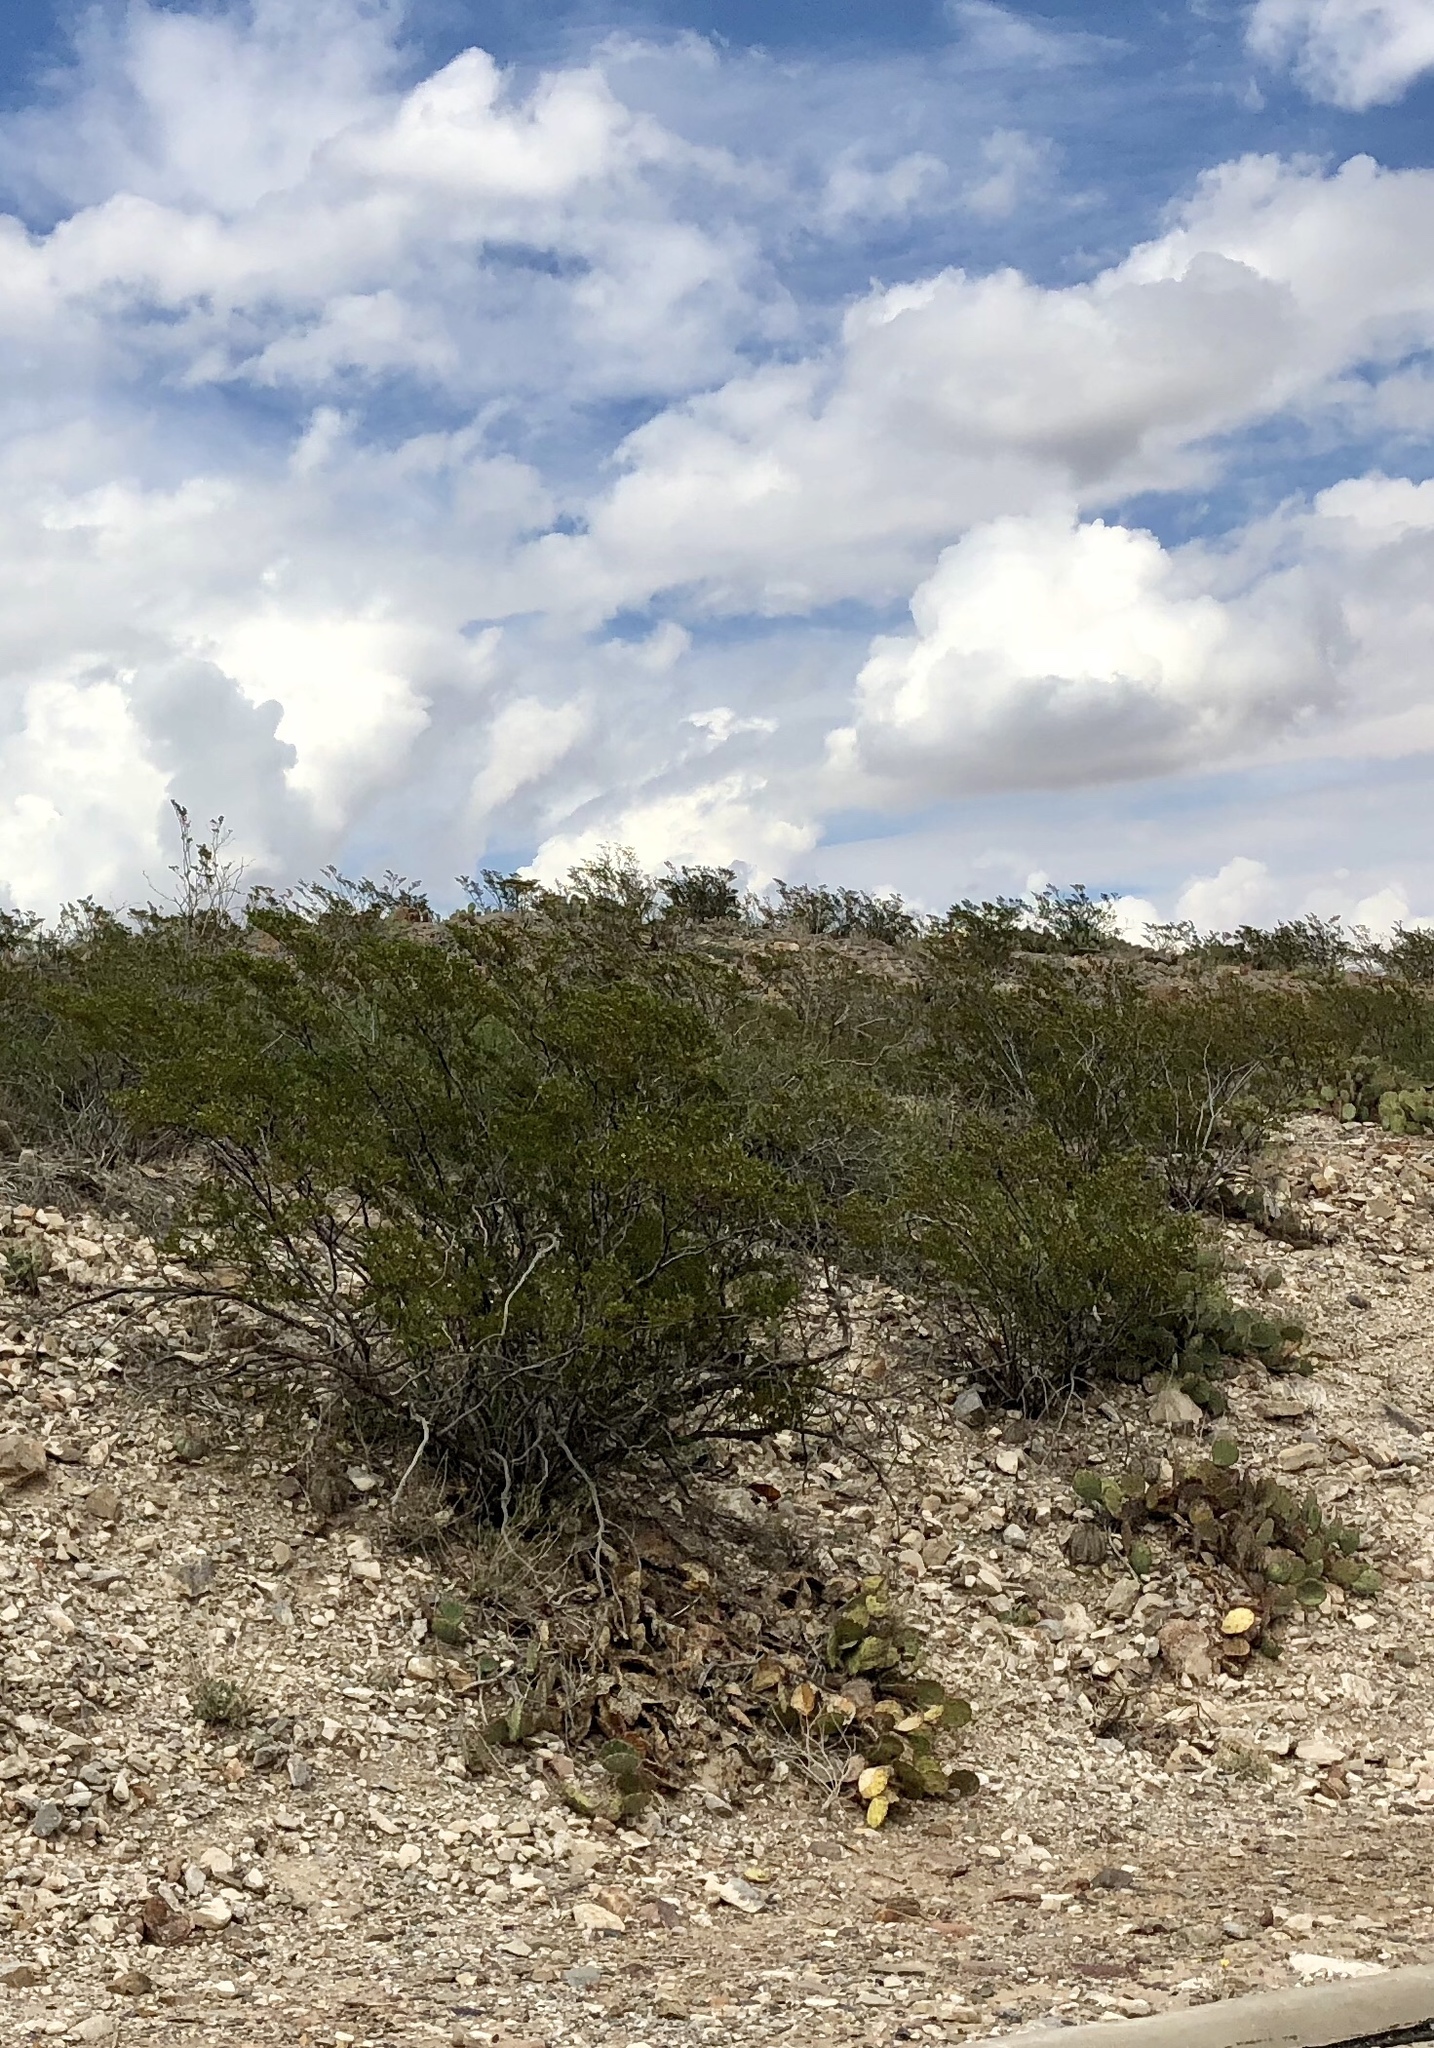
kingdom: Plantae
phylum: Tracheophyta
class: Magnoliopsida
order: Zygophyllales
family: Zygophyllaceae
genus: Larrea
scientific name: Larrea tridentata
